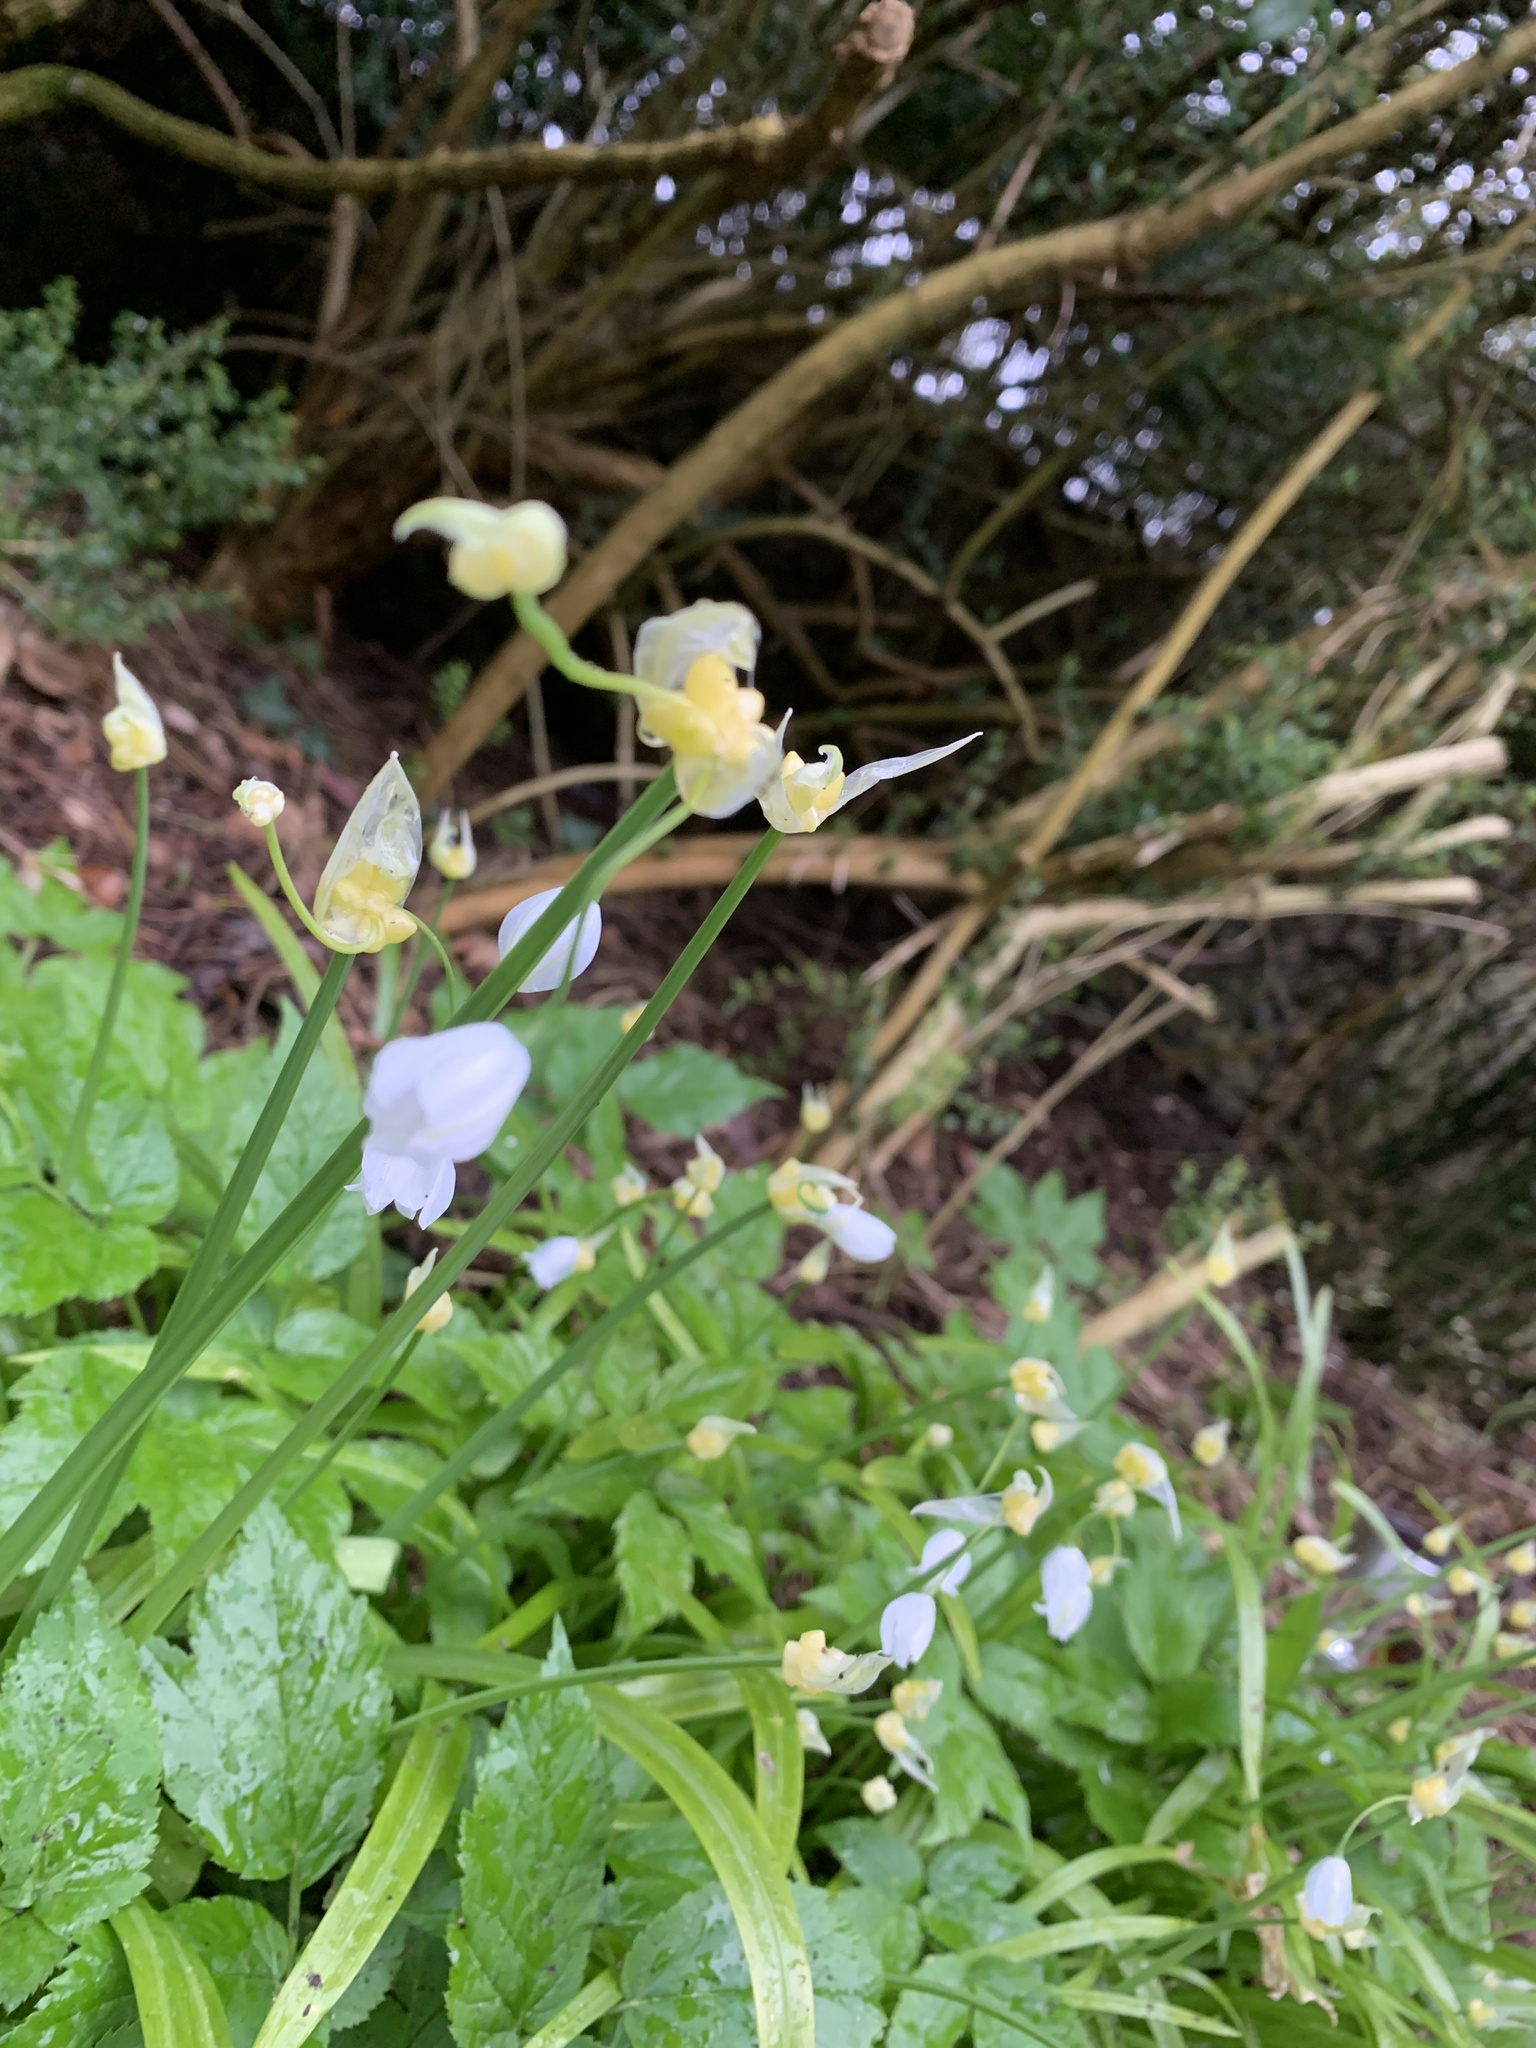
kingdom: Plantae
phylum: Tracheophyta
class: Liliopsida
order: Asparagales
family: Amaryllidaceae
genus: Allium
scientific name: Allium paradoxum
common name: Few-flowered garlic
